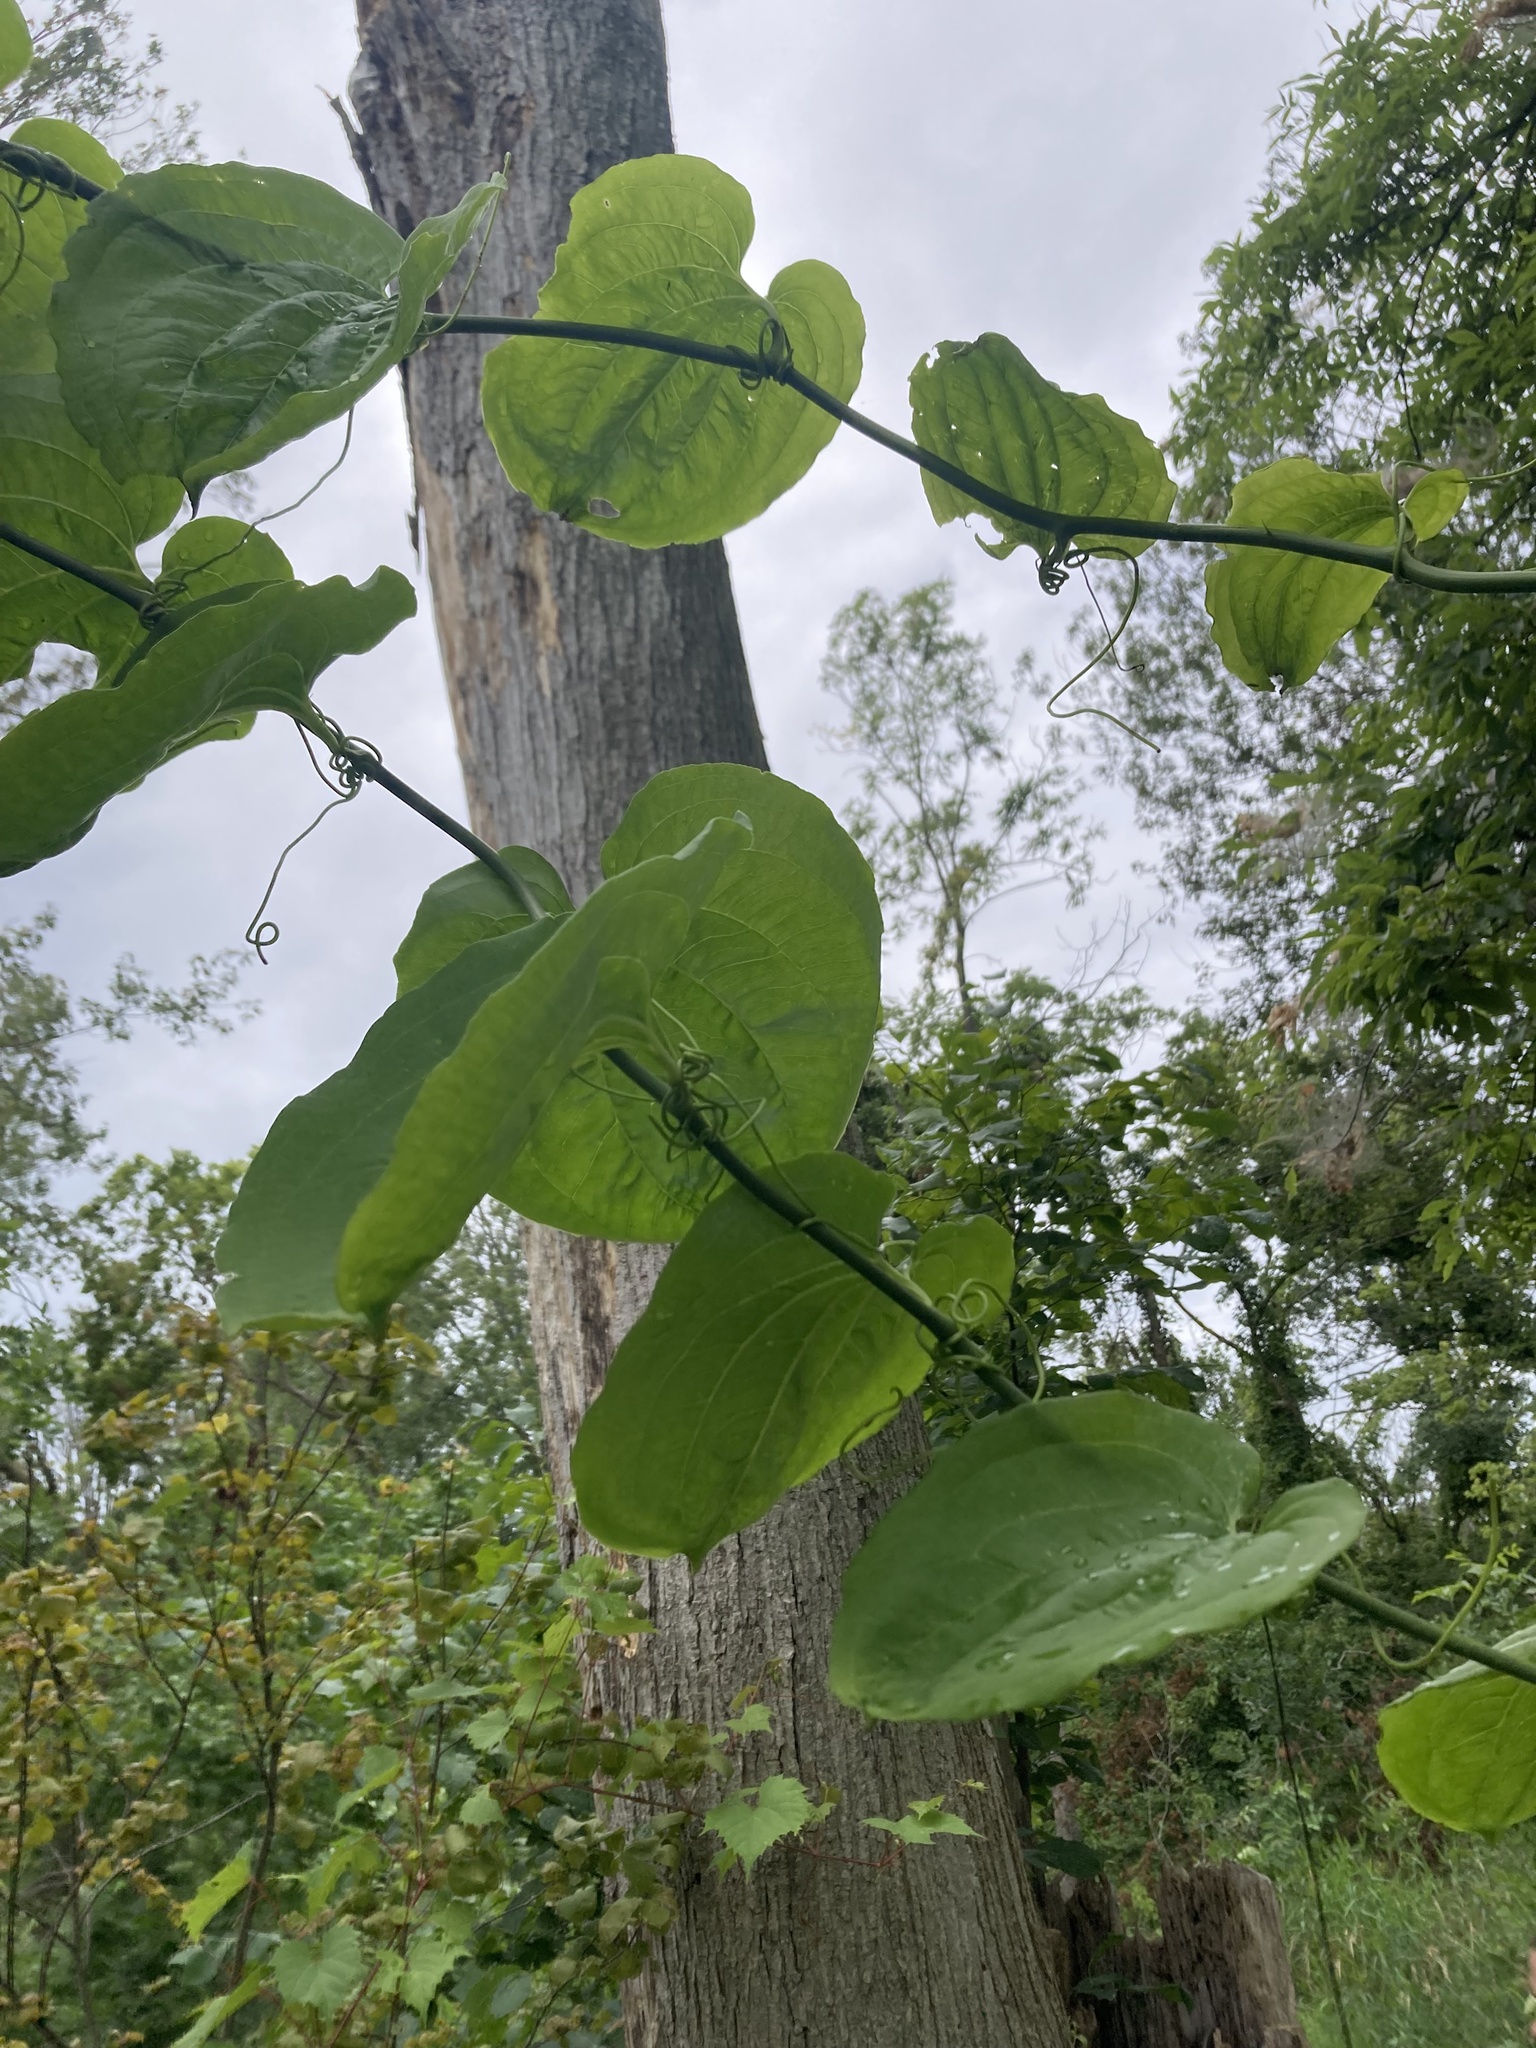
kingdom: Plantae
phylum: Tracheophyta
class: Liliopsida
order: Liliales
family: Smilacaceae
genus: Smilax
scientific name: Smilax tamnoides
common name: Hellfetter
